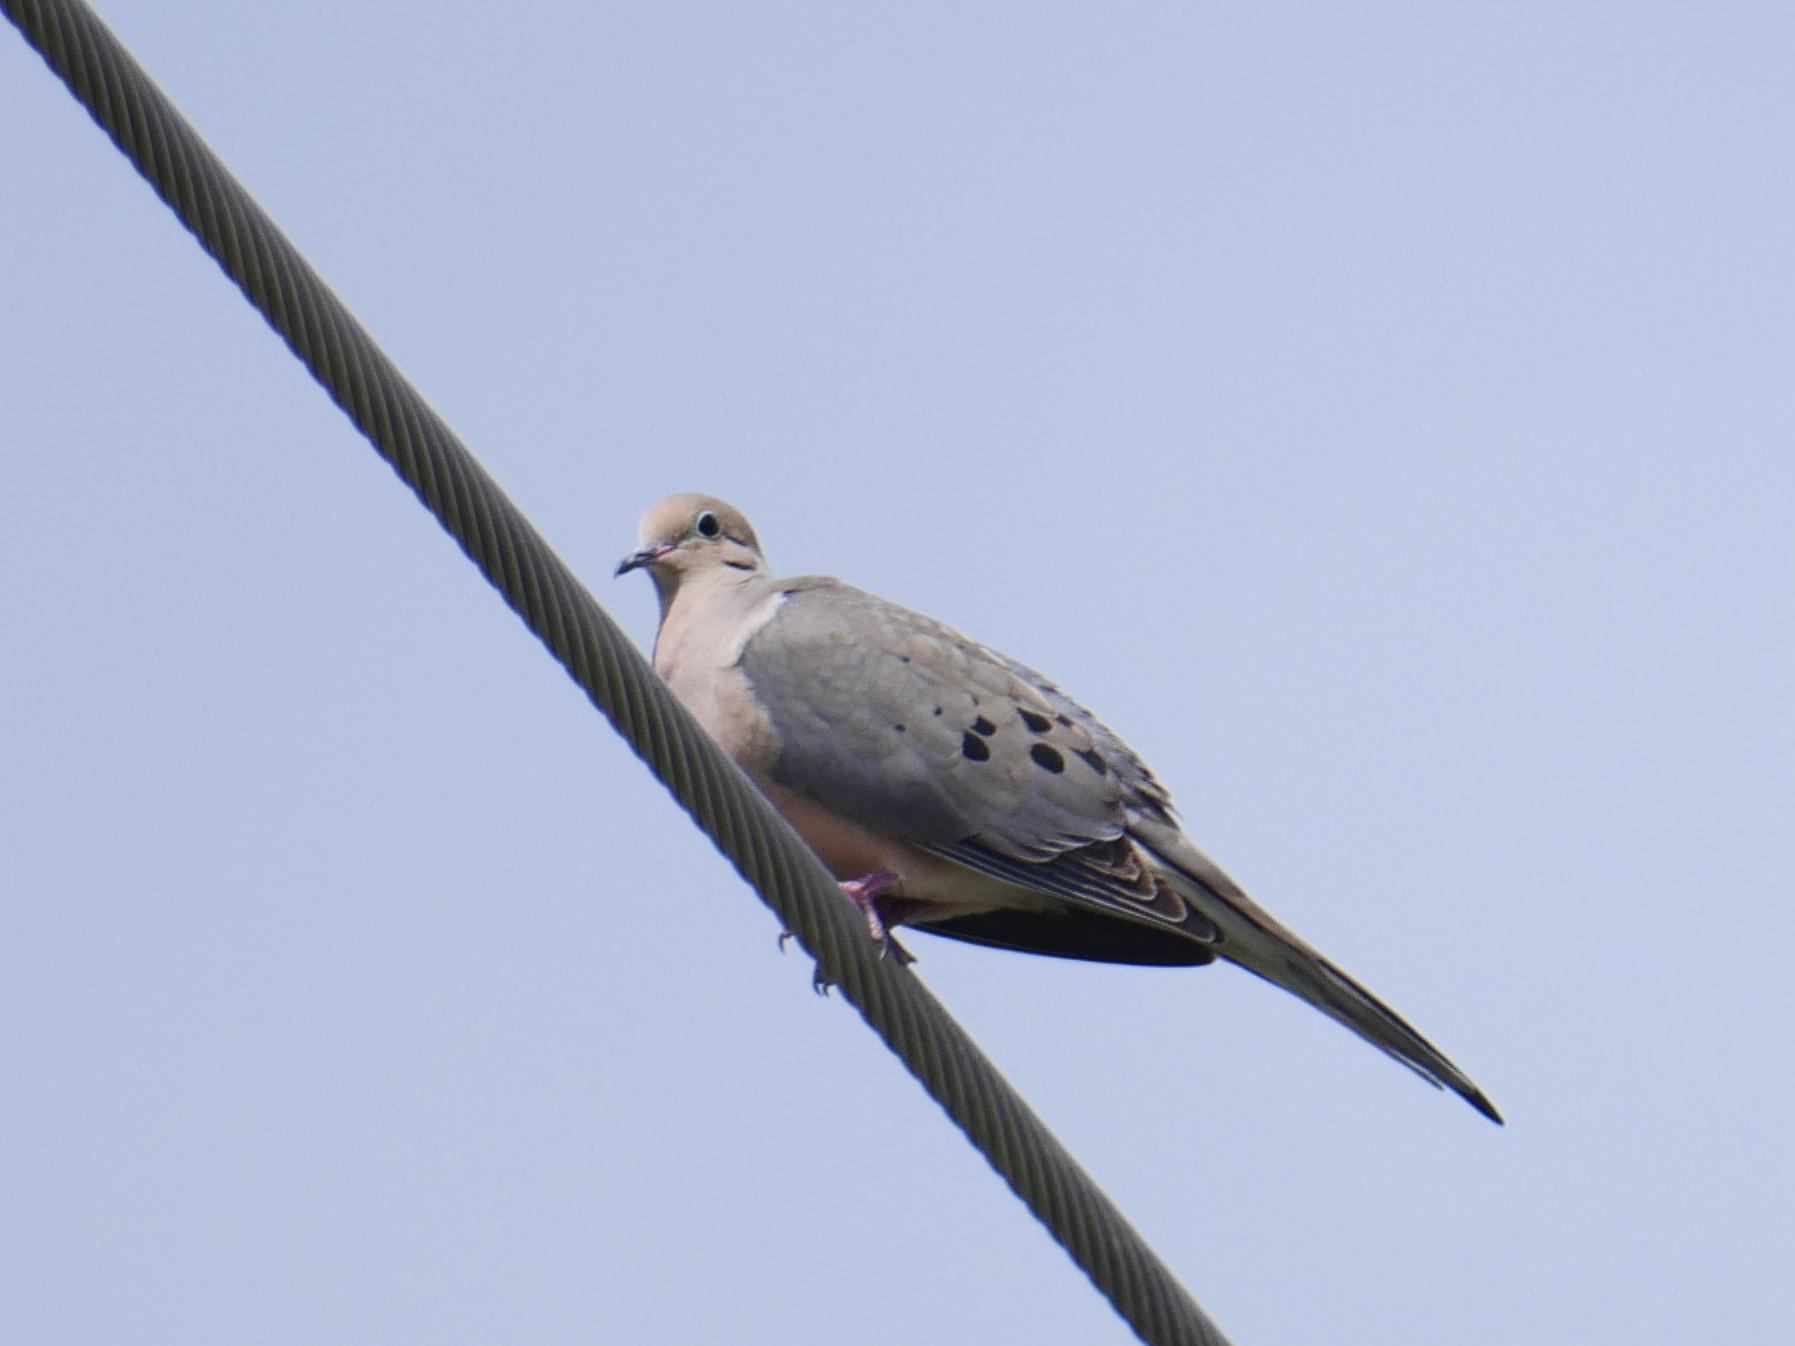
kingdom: Animalia
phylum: Chordata
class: Aves
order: Columbiformes
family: Columbidae
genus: Zenaida
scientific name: Zenaida macroura
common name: Mourning dove
